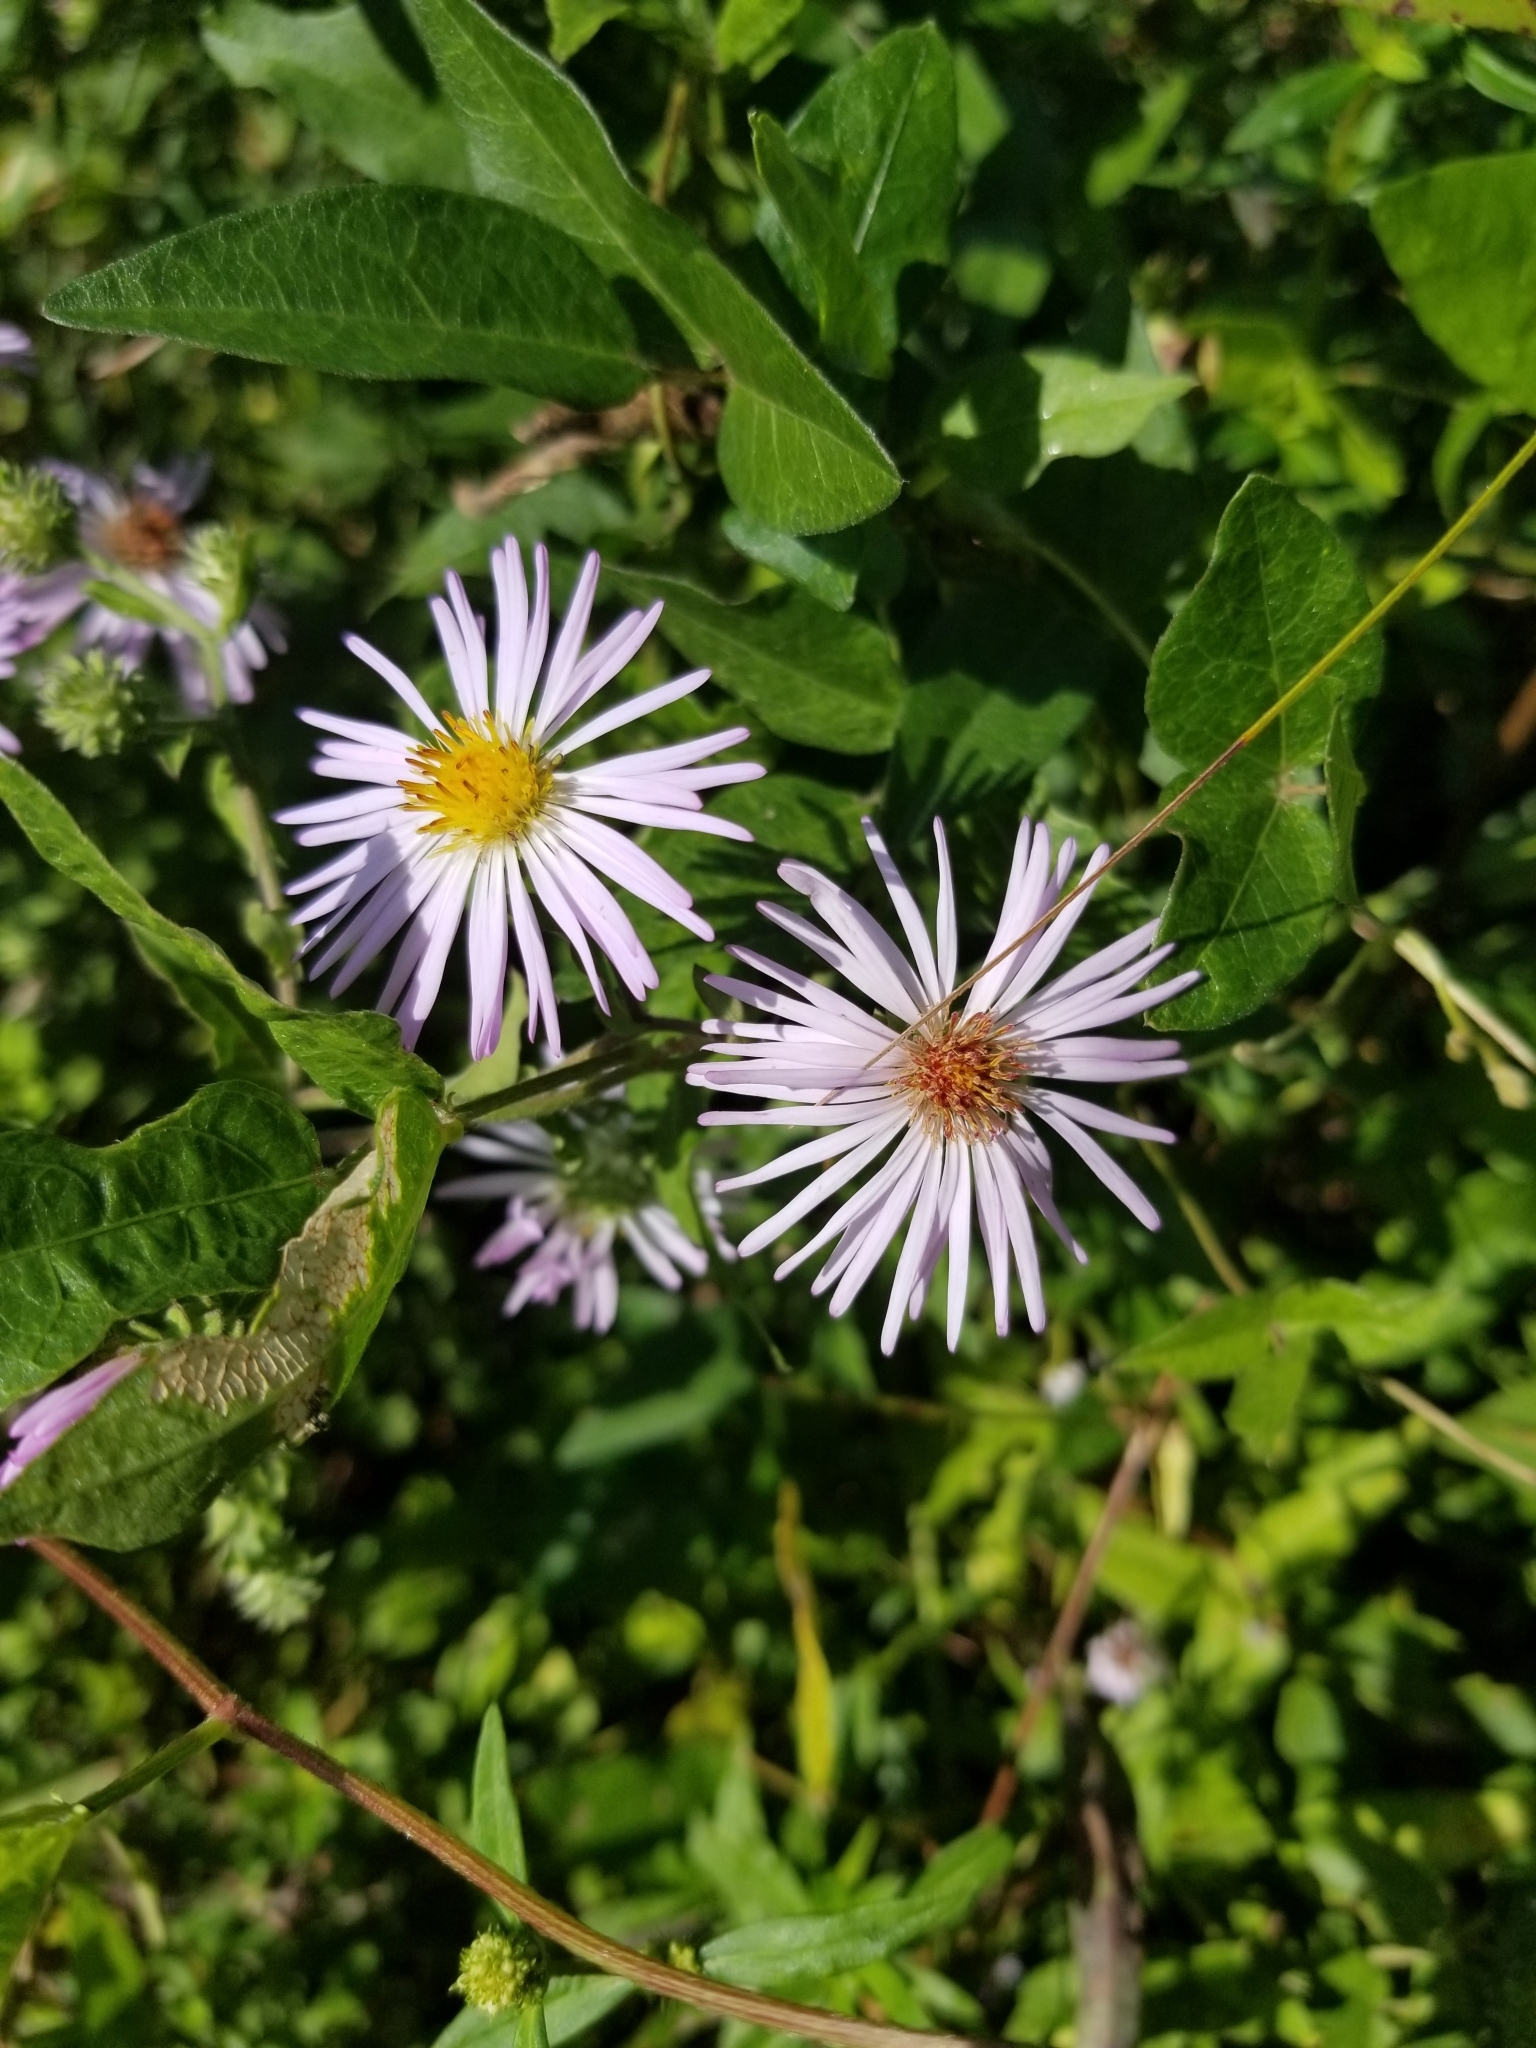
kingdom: Plantae
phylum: Tracheophyta
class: Magnoliopsida
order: Asterales
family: Asteraceae
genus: Ampelaster
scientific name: Ampelaster carolinianus
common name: Climbing aster
